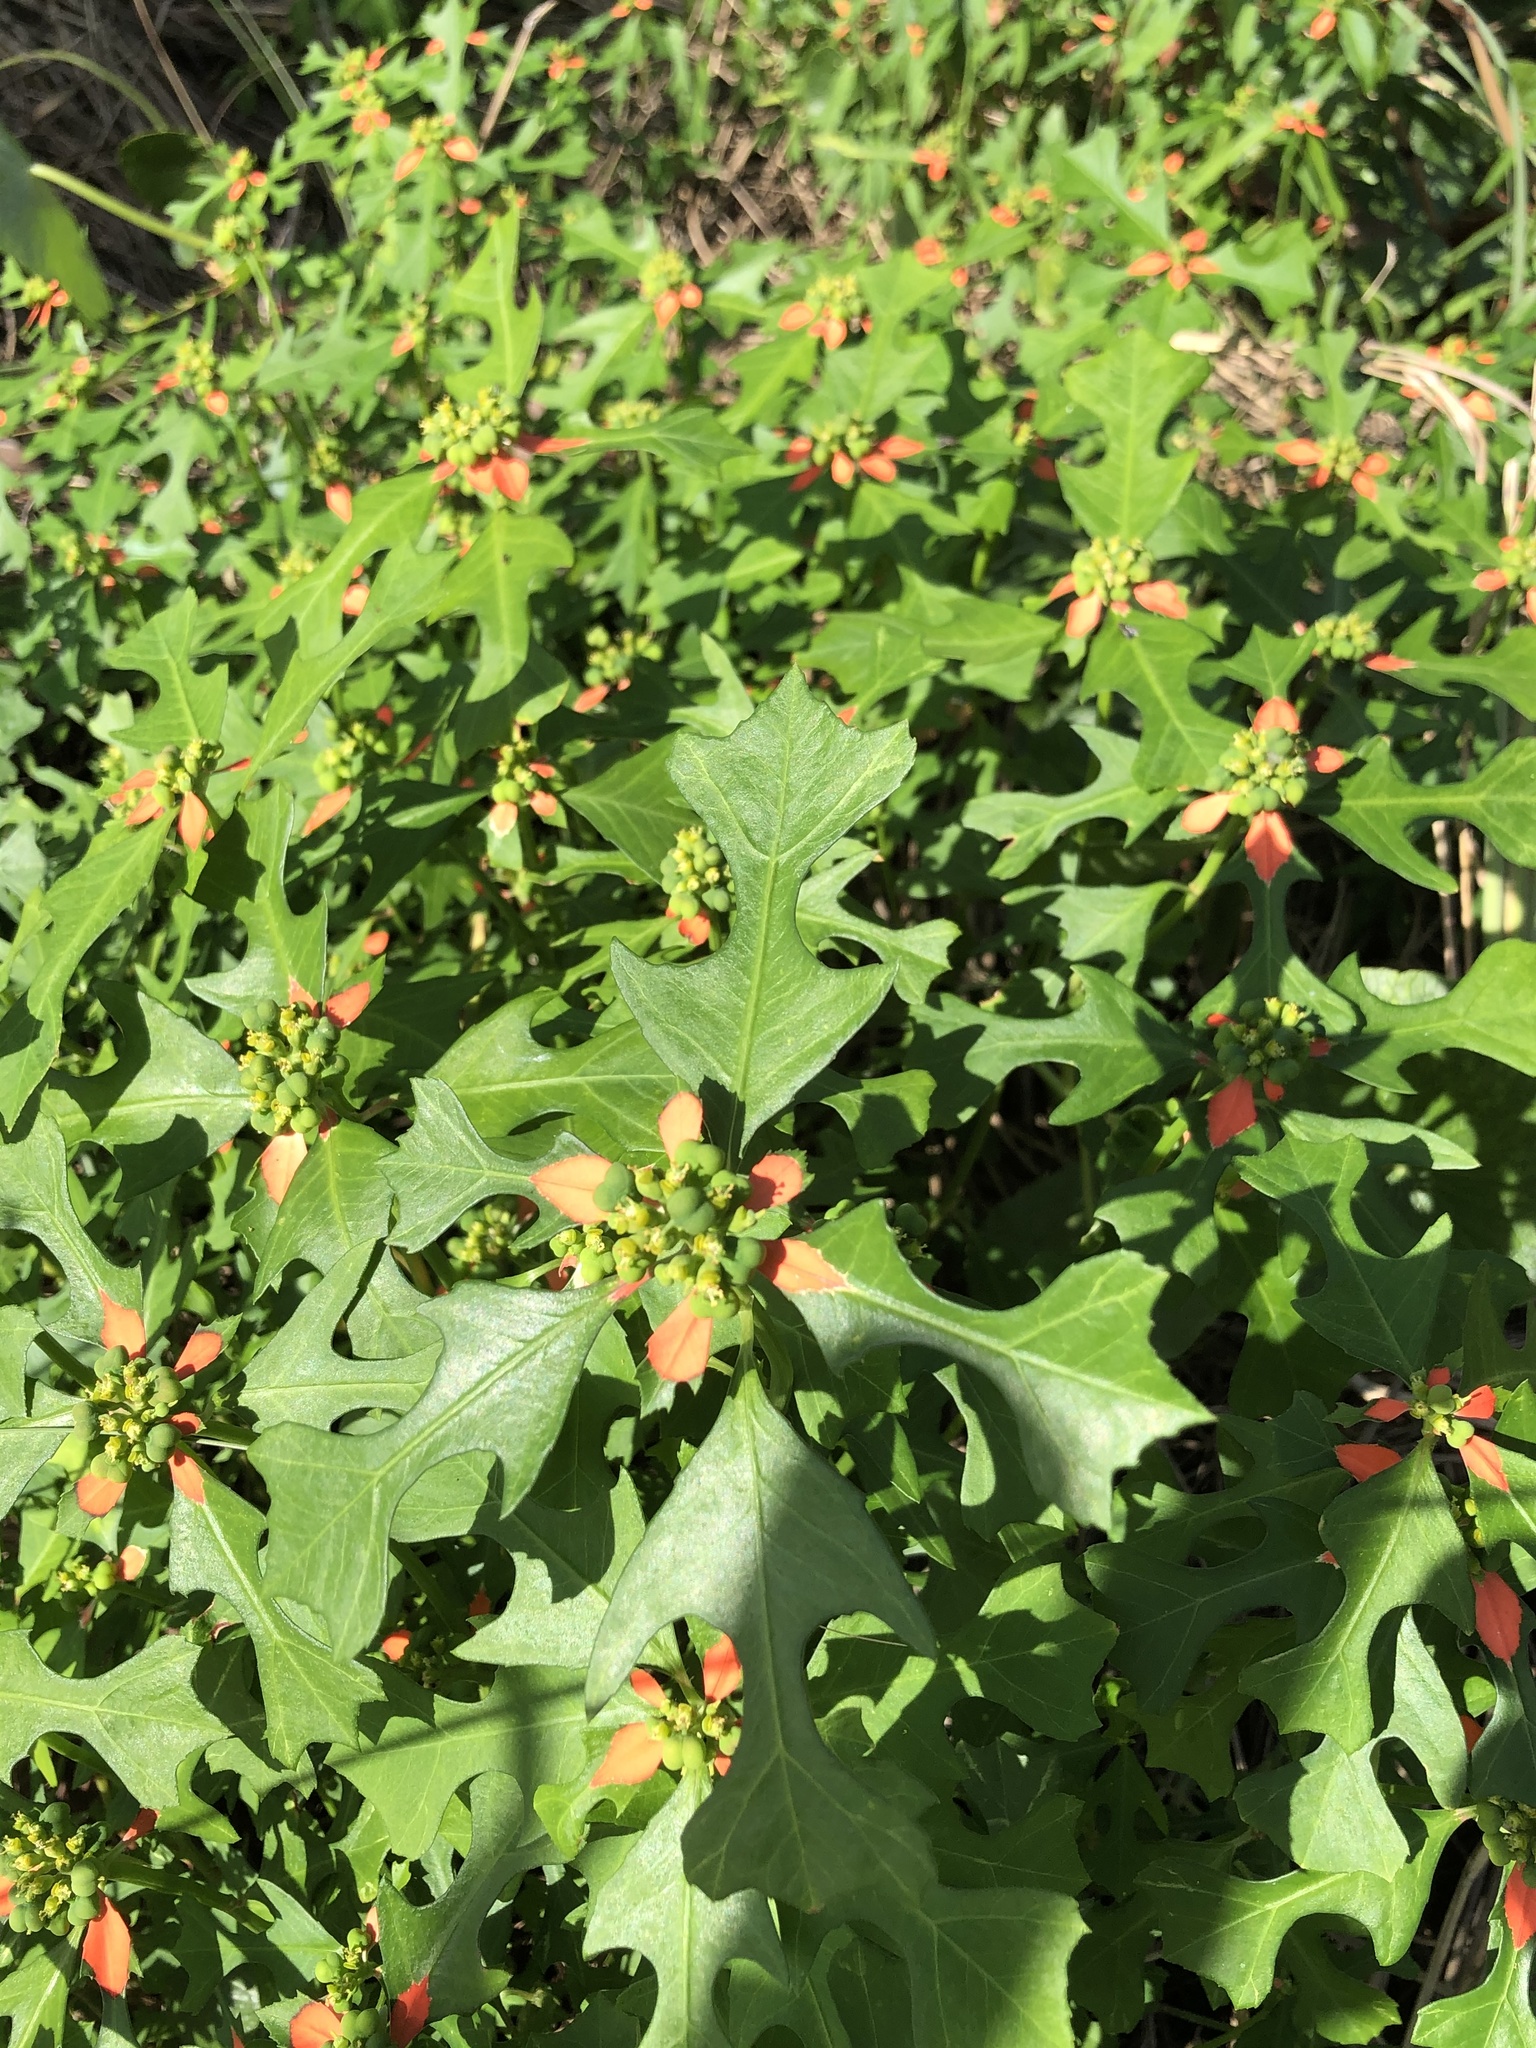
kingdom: Plantae
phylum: Tracheophyta
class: Magnoliopsida
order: Malpighiales
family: Euphorbiaceae
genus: Euphorbia
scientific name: Euphorbia heterophylla
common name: Mexican fireplant
